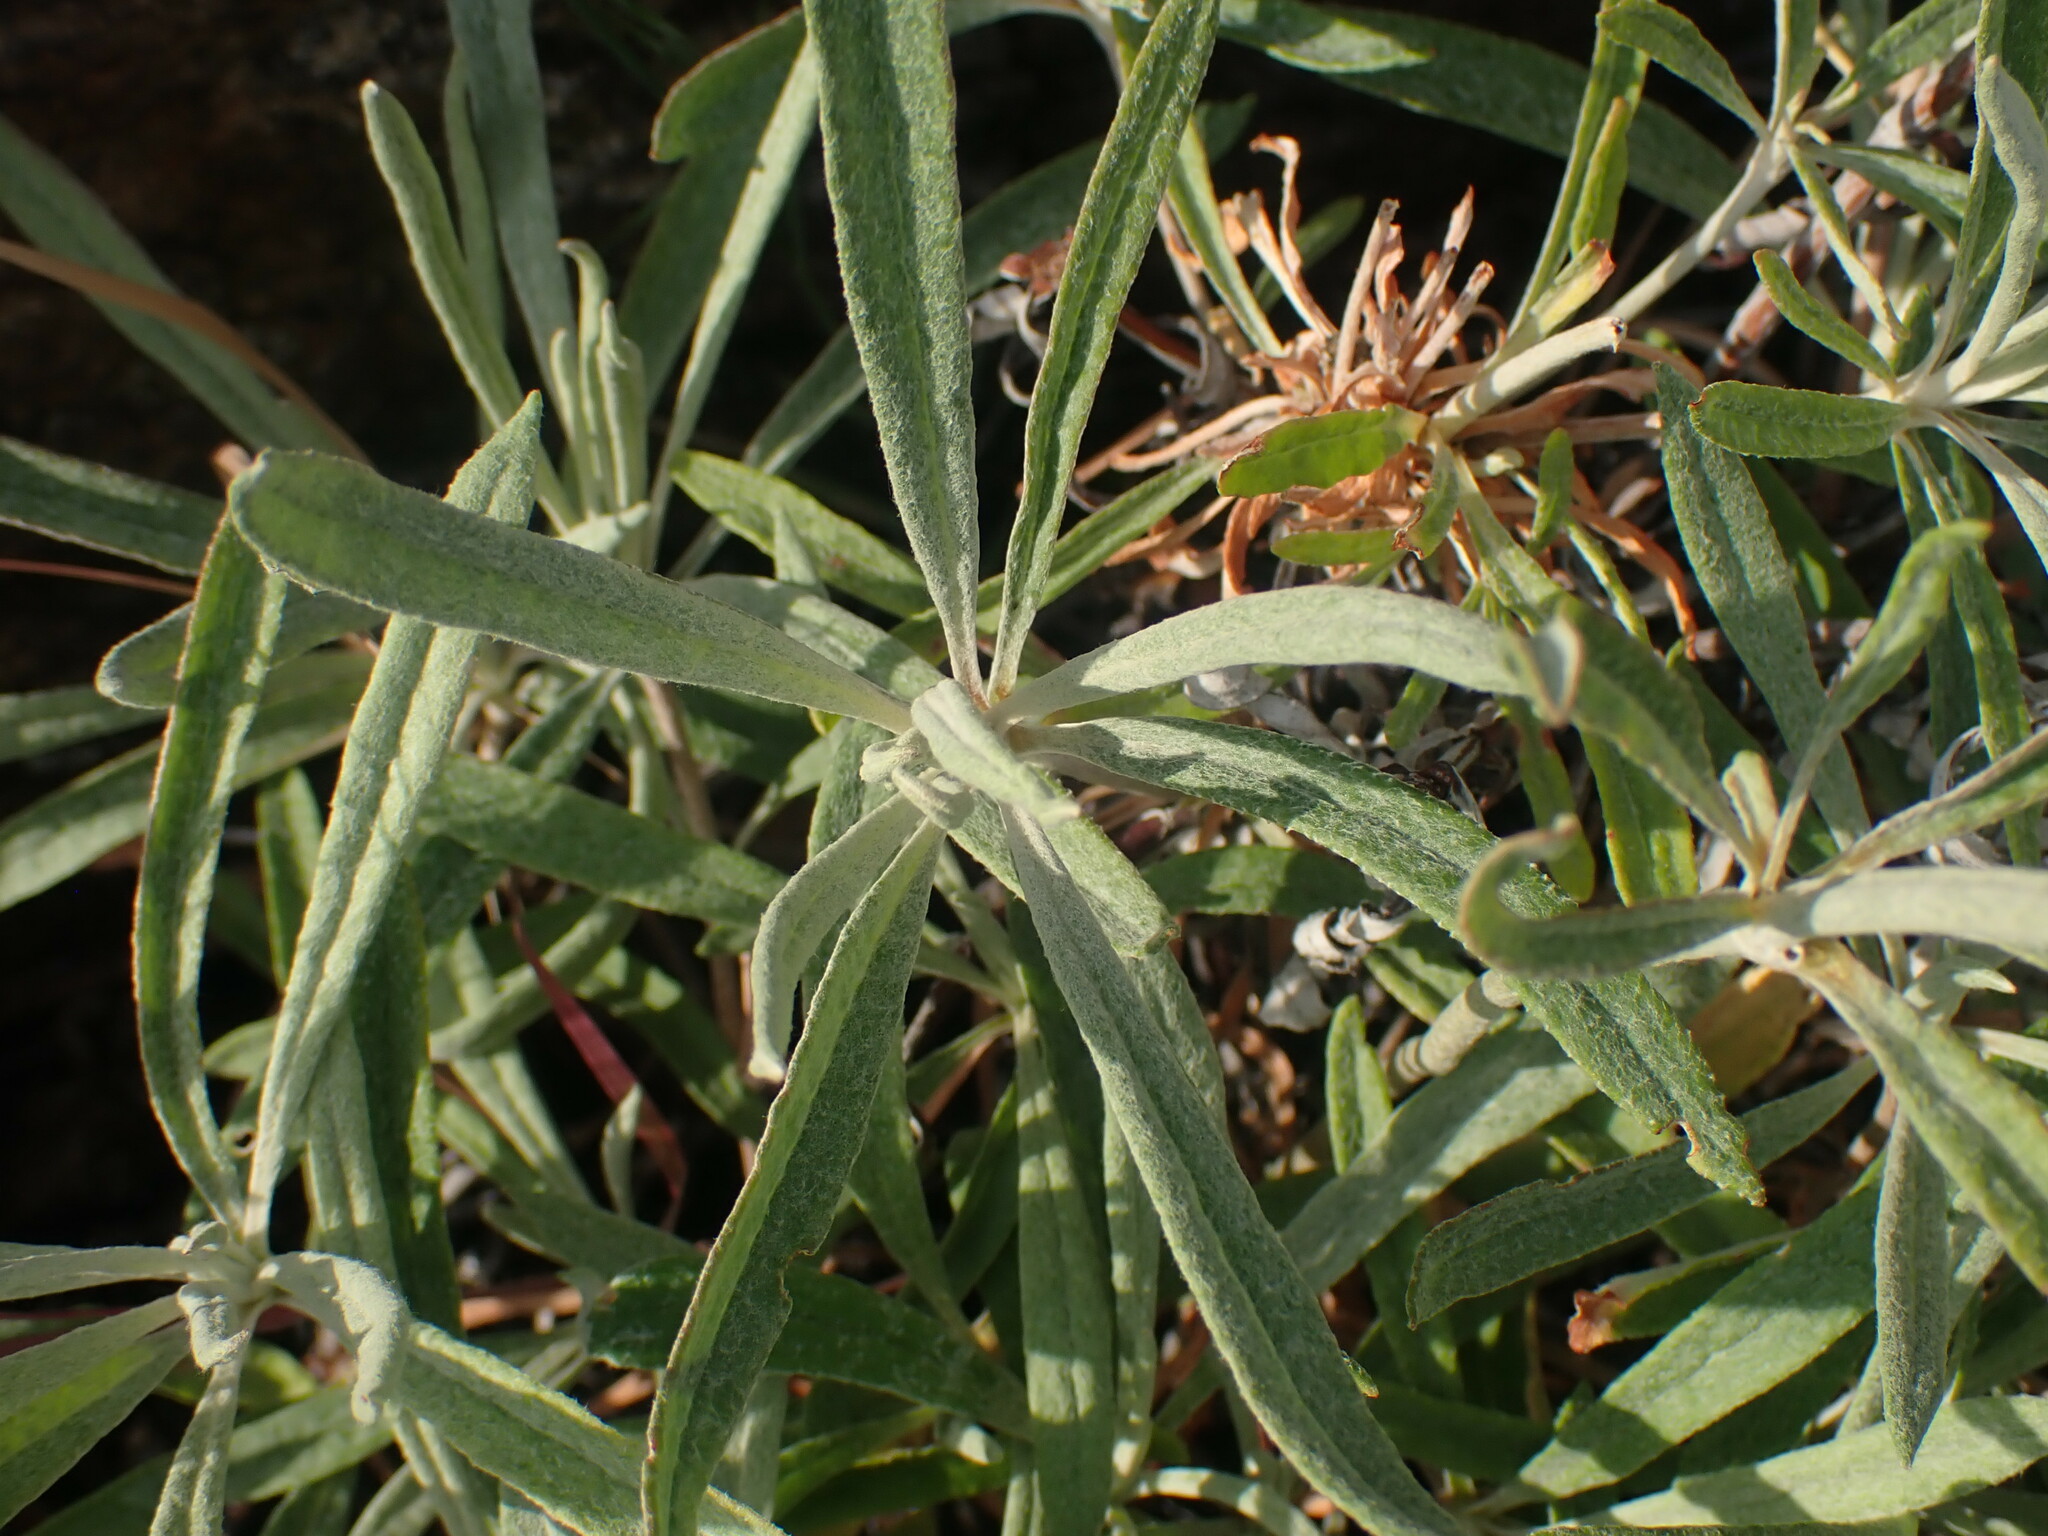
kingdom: Plantae
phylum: Tracheophyta
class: Magnoliopsida
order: Caryophyllales
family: Polygonaceae
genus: Eriogonum
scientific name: Eriogonum heracleoides
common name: Wyeth's buckwheat
